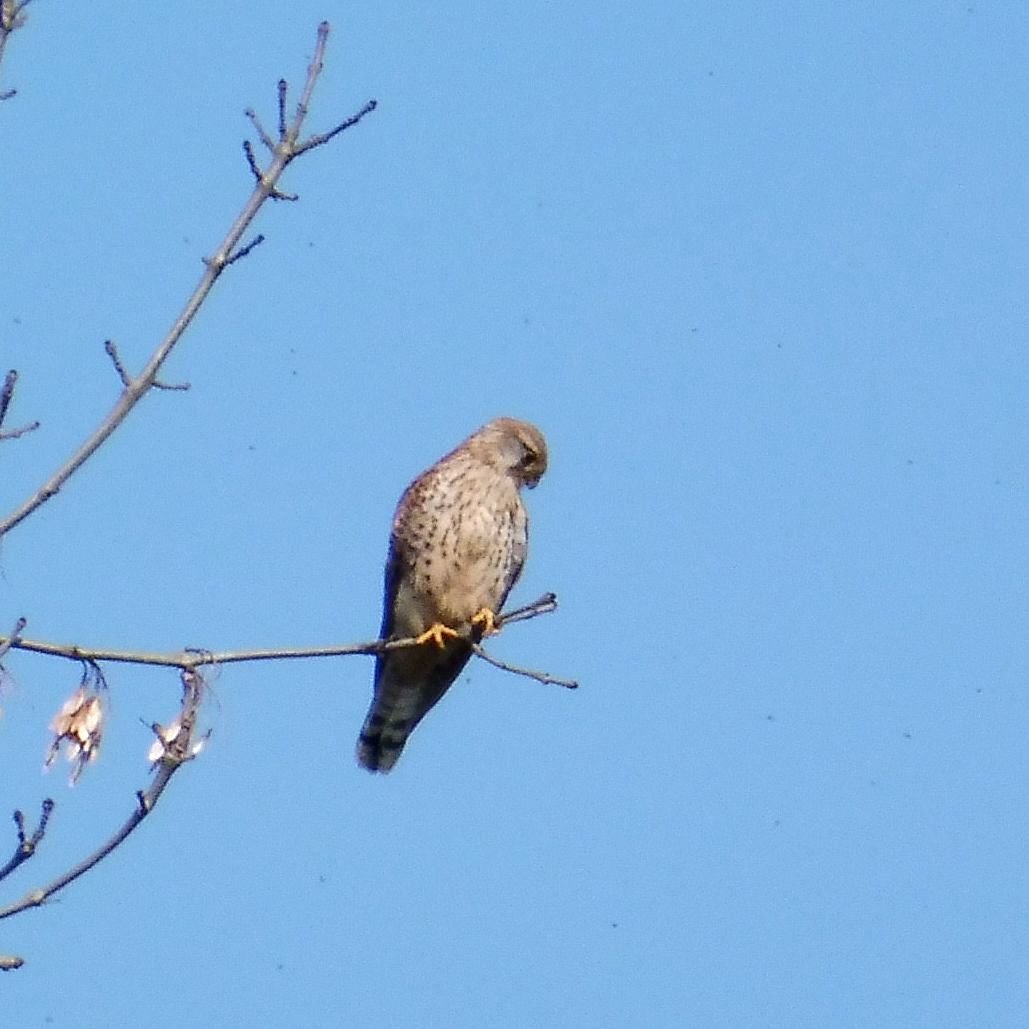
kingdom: Animalia
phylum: Chordata
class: Aves
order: Falconiformes
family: Falconidae
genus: Falco
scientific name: Falco tinnunculus
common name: Common kestrel
